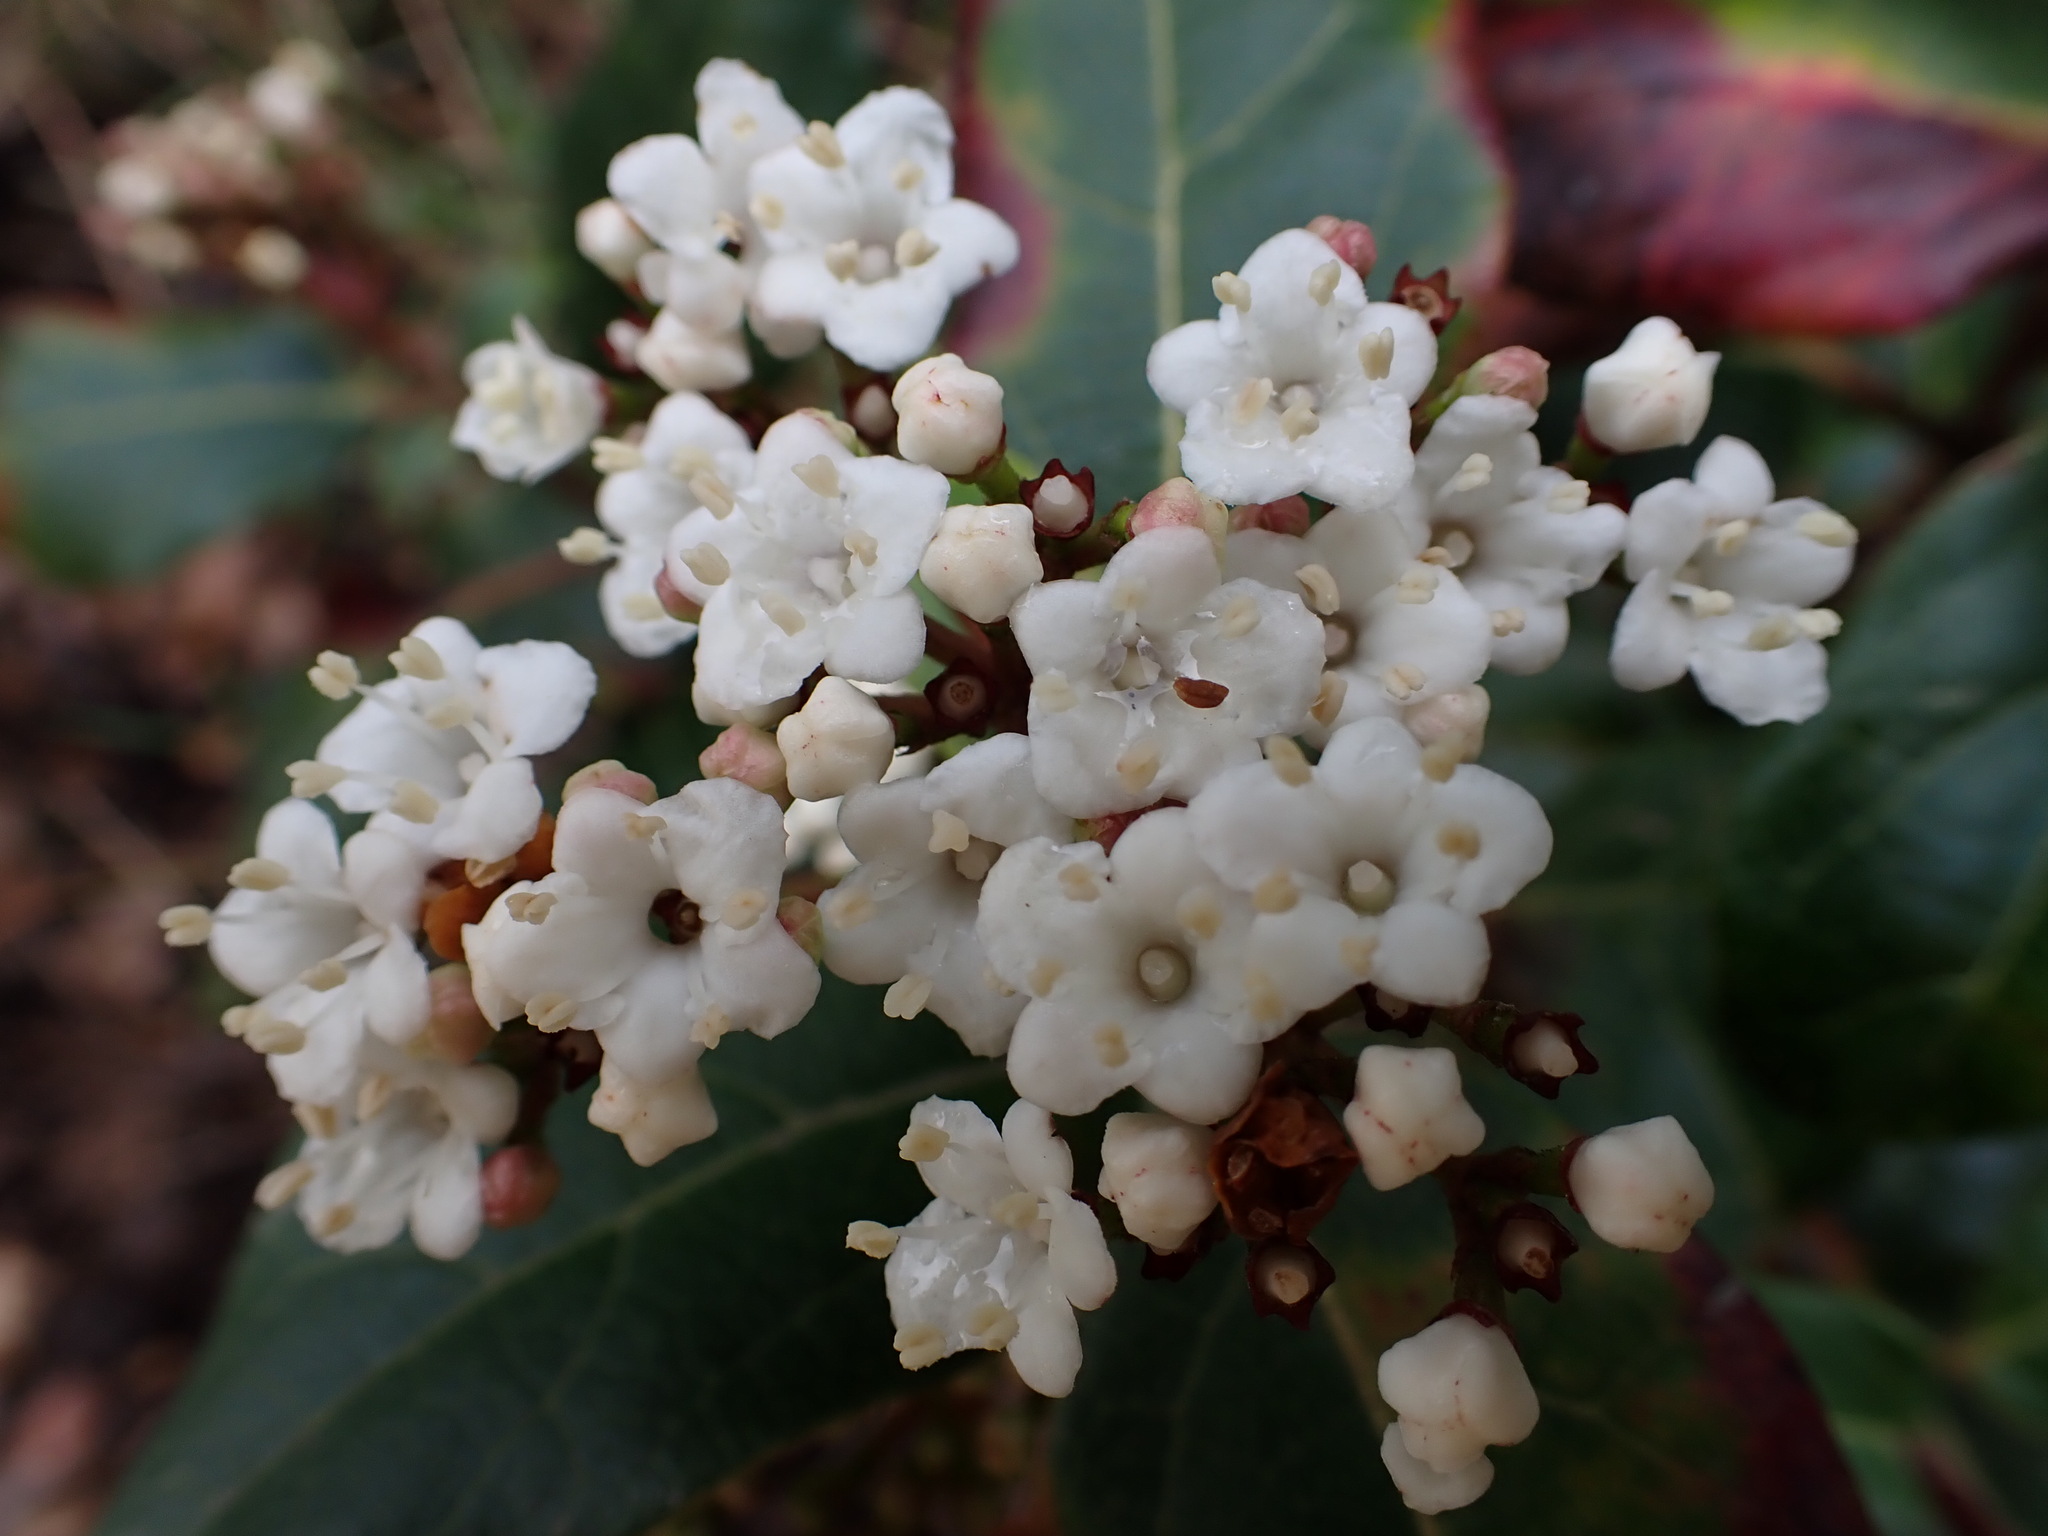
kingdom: Plantae
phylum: Tracheophyta
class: Magnoliopsida
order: Dipsacales
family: Viburnaceae
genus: Viburnum
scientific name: Viburnum tinus
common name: Laurustinus
